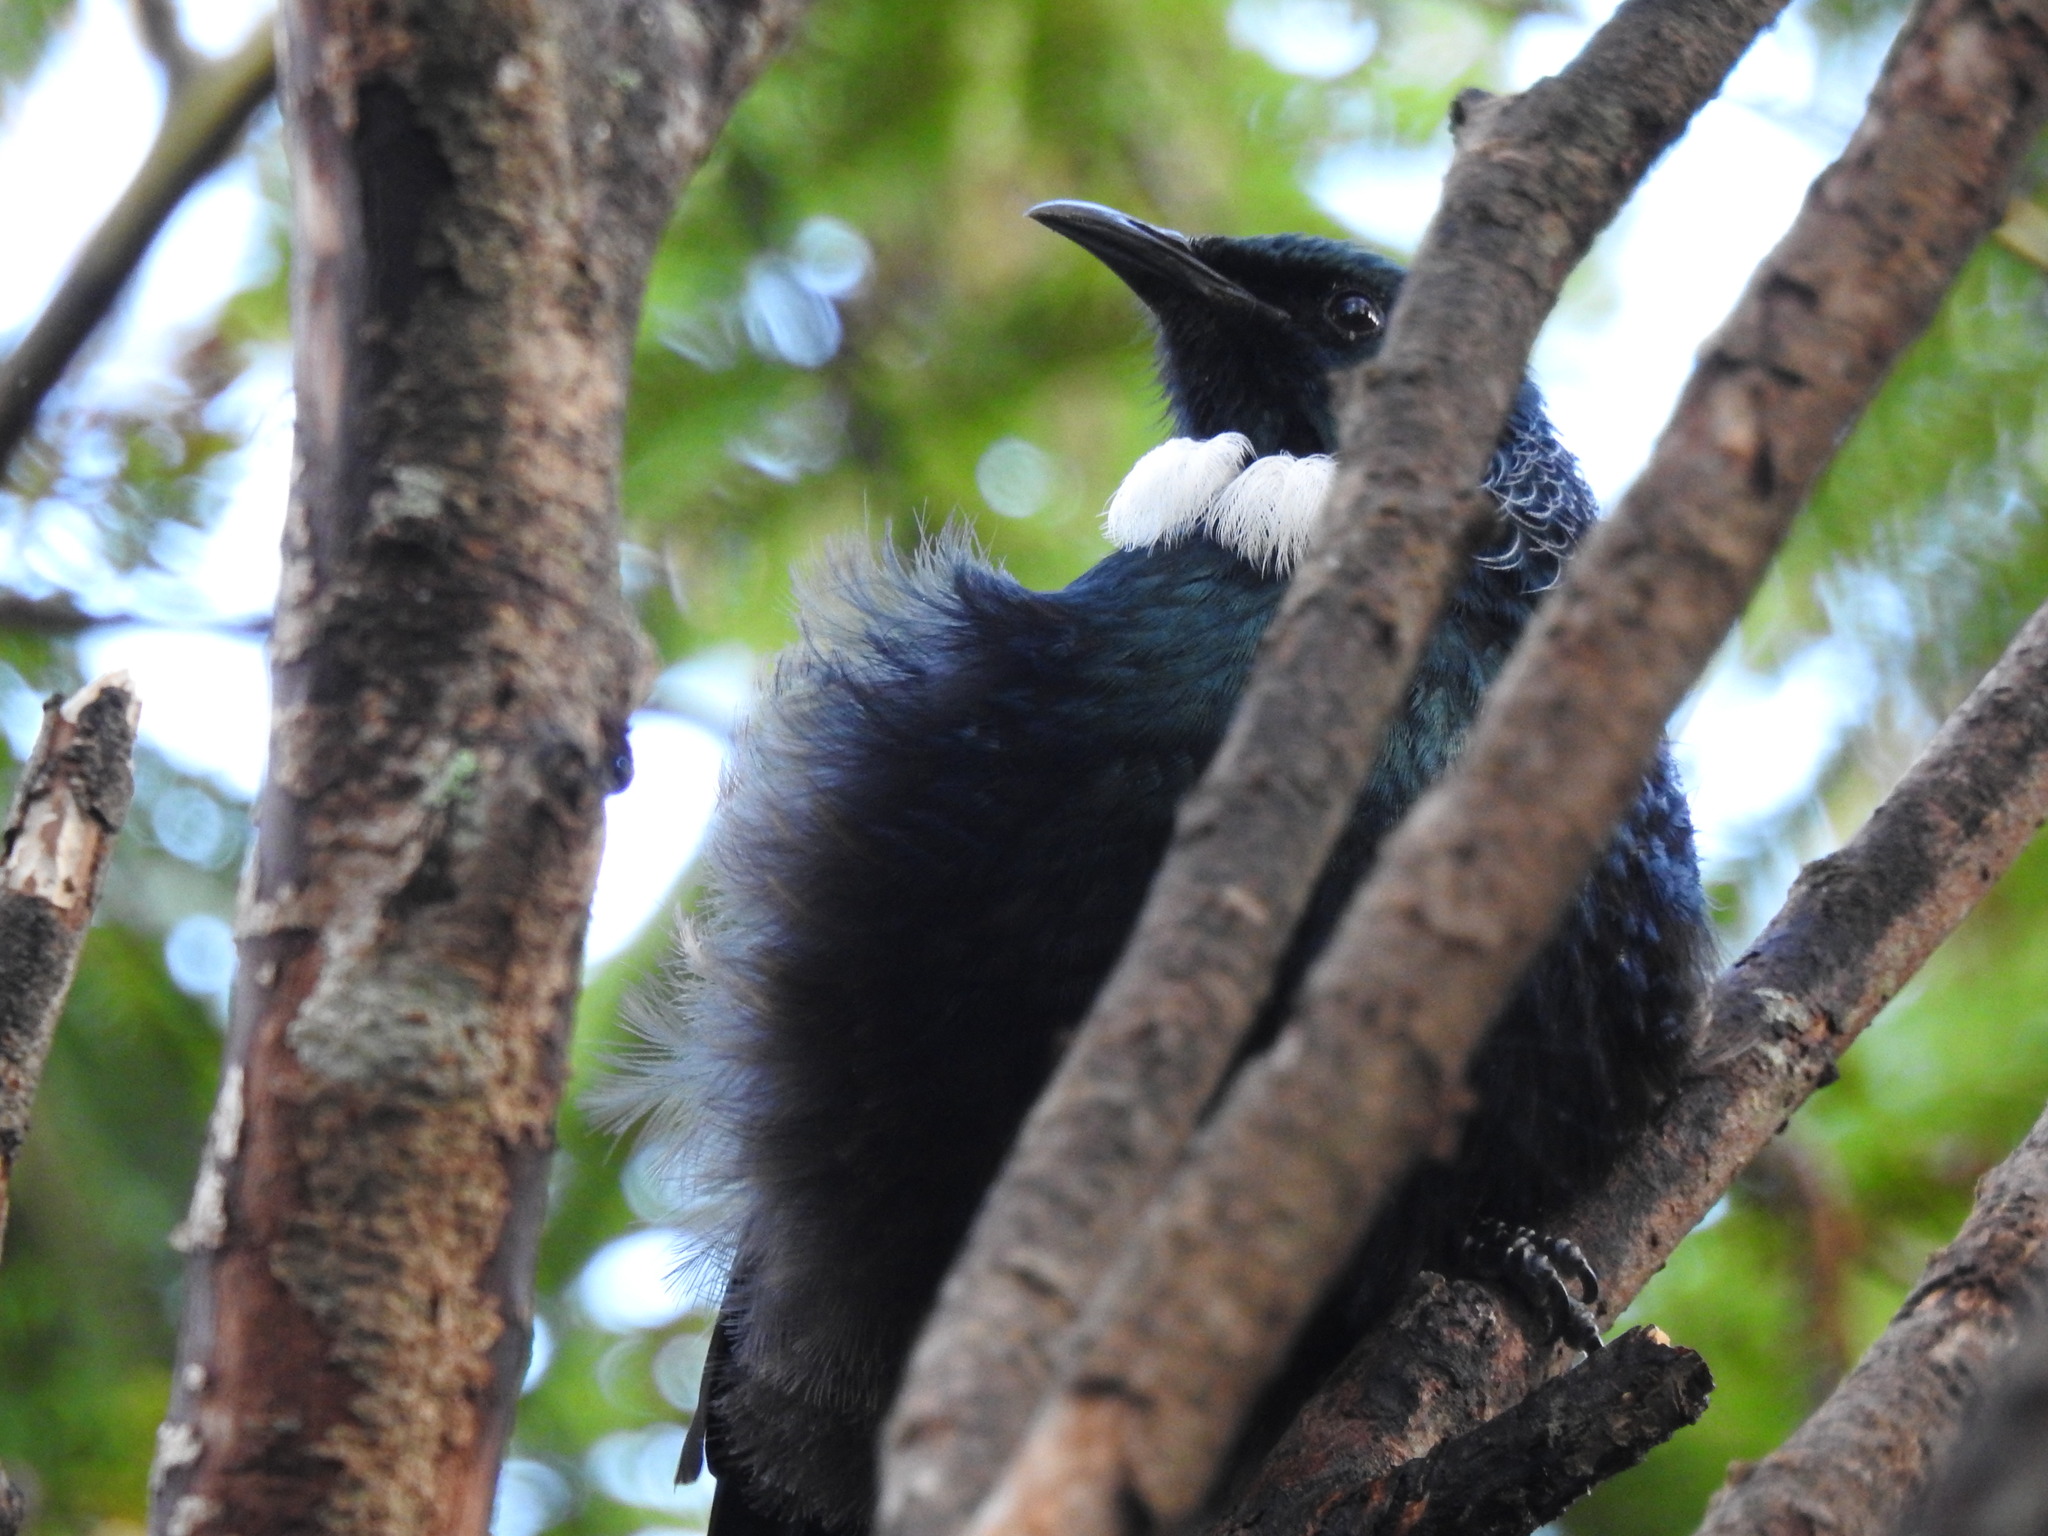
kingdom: Animalia
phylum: Chordata
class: Aves
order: Passeriformes
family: Meliphagidae
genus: Prosthemadera
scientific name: Prosthemadera novaeseelandiae
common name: Tui
